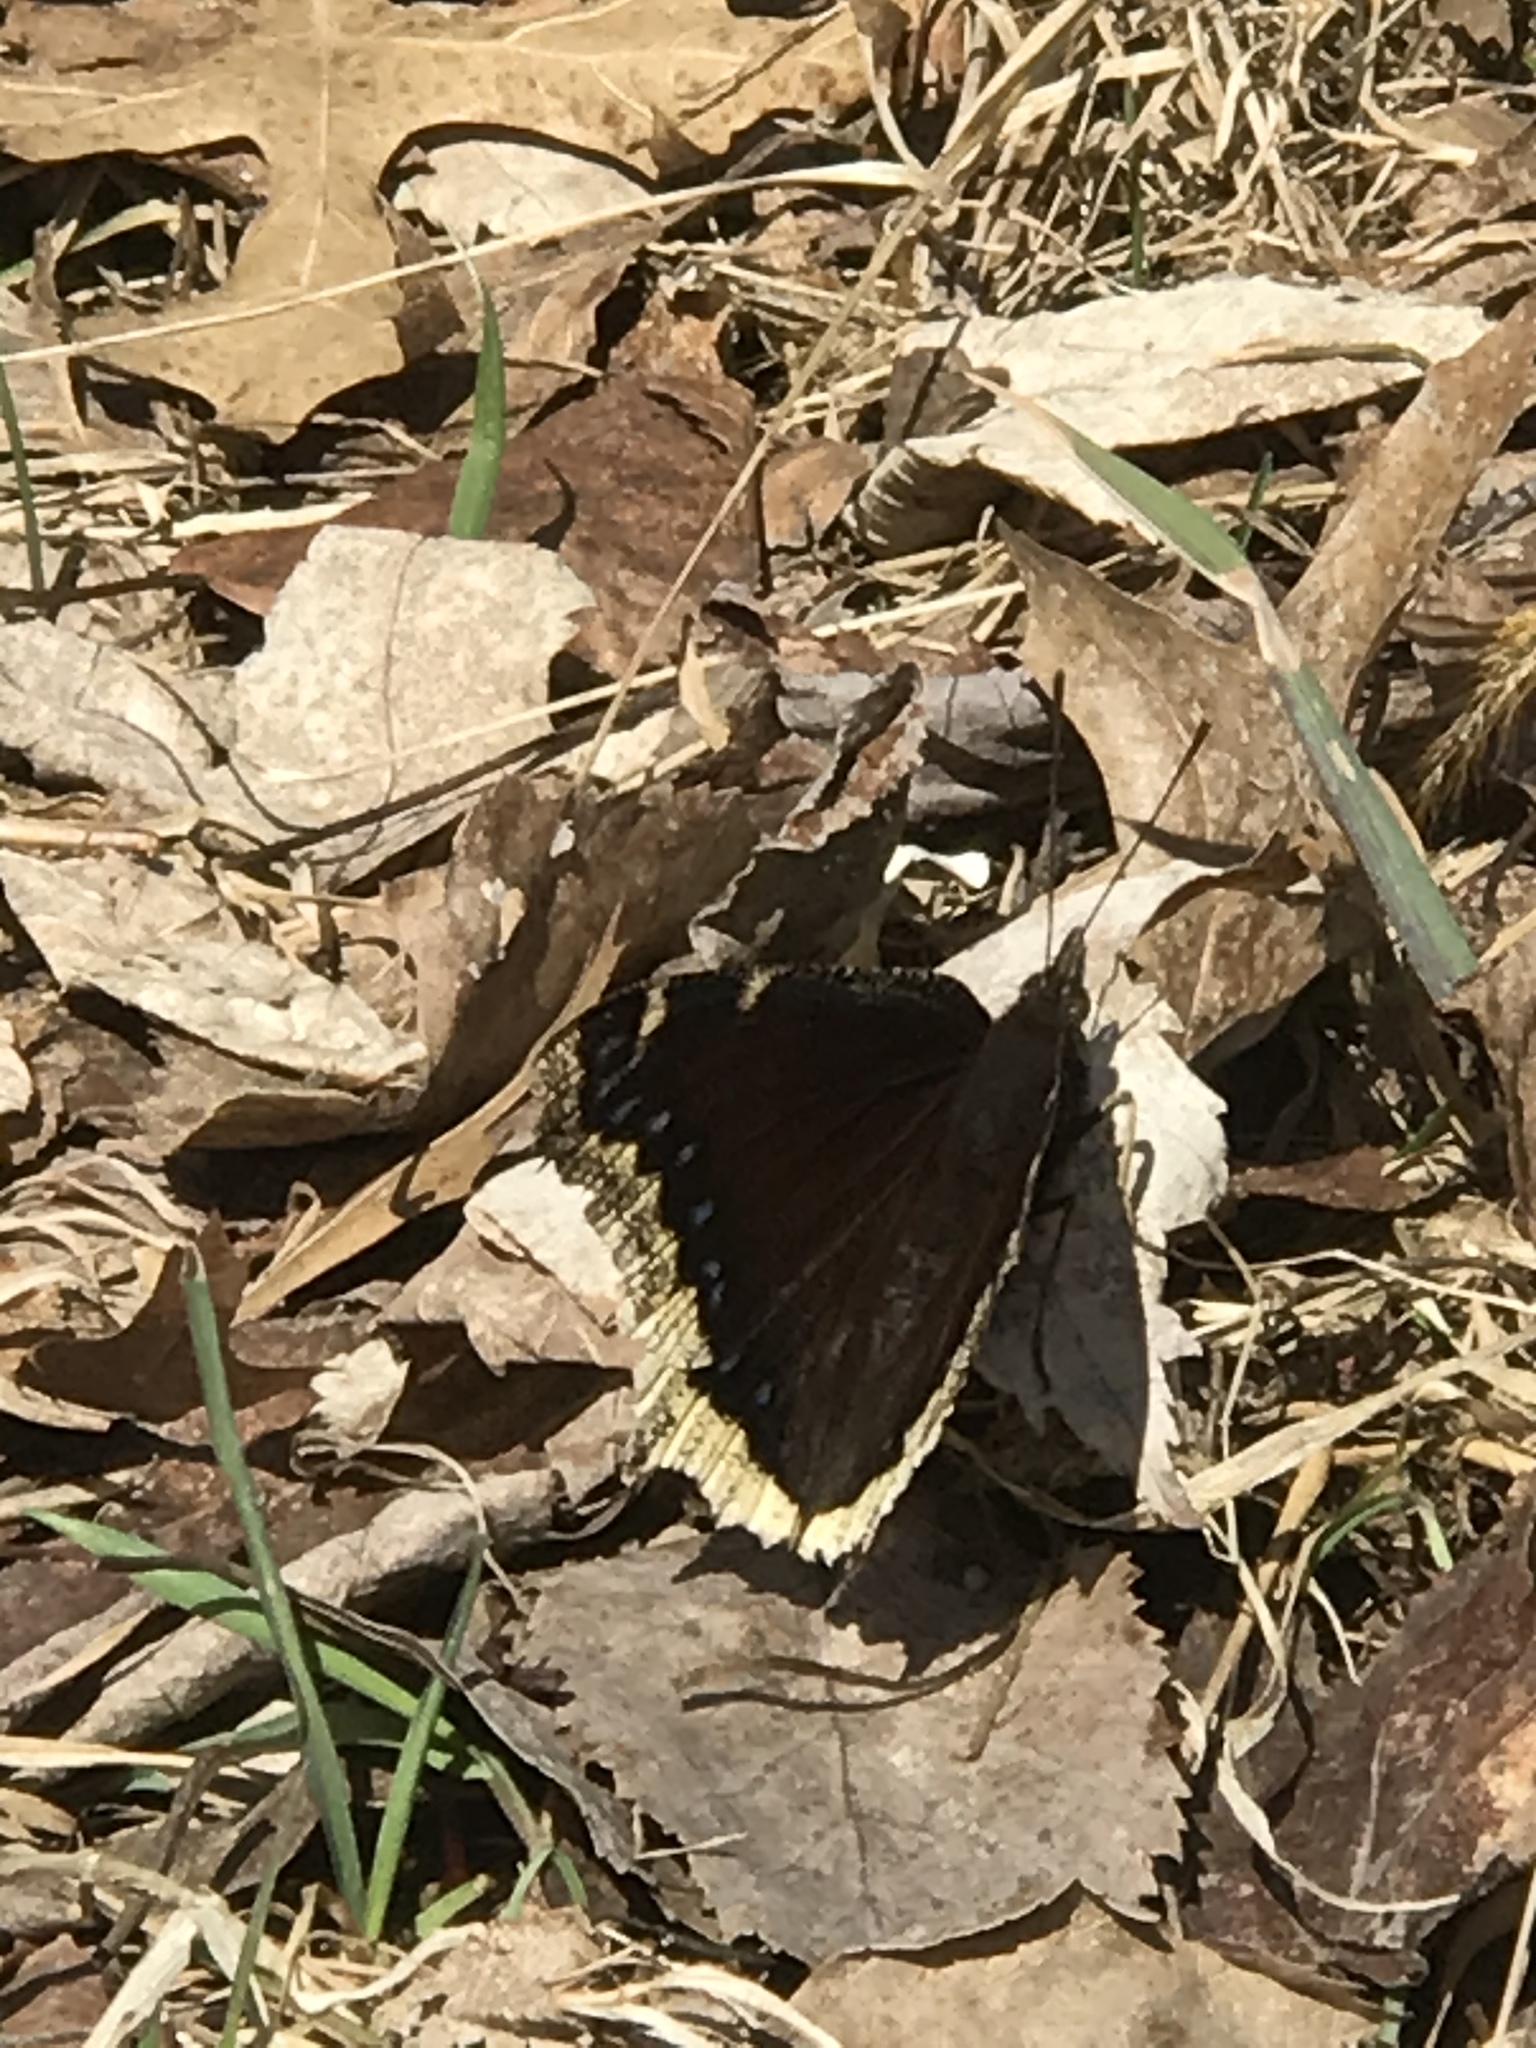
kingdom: Animalia
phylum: Arthropoda
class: Insecta
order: Lepidoptera
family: Nymphalidae
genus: Nymphalis
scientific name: Nymphalis antiopa
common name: Camberwell beauty
